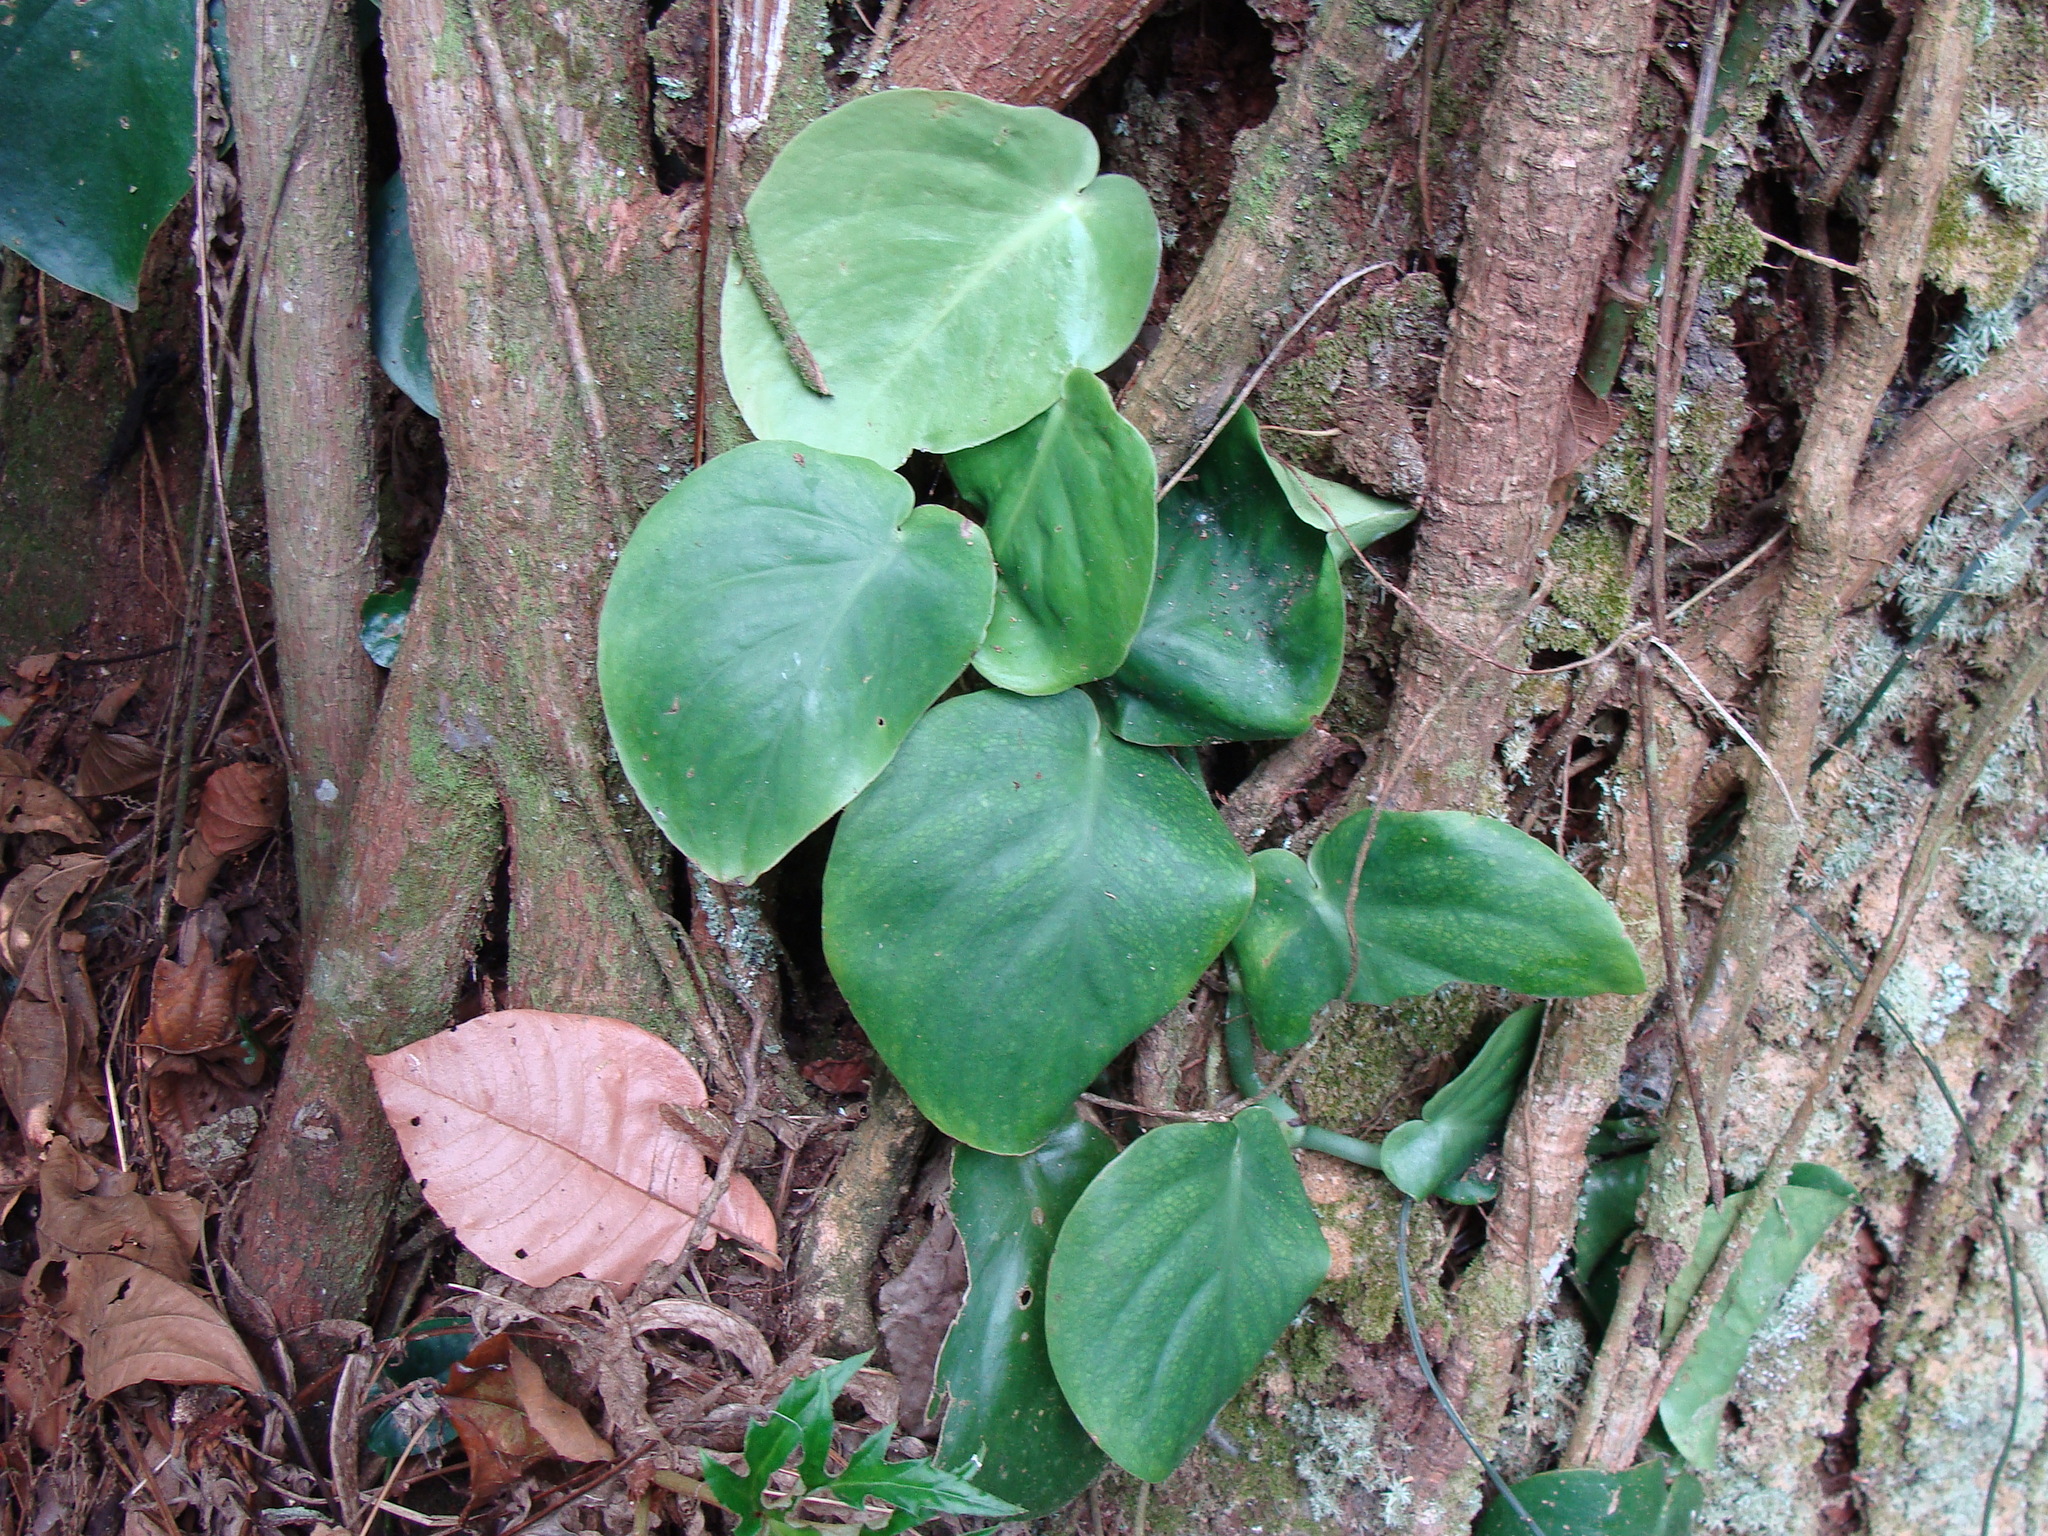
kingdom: Plantae
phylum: Tracheophyta
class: Liliopsida
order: Alismatales
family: Araceae
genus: Monstera
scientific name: Monstera acuminata
